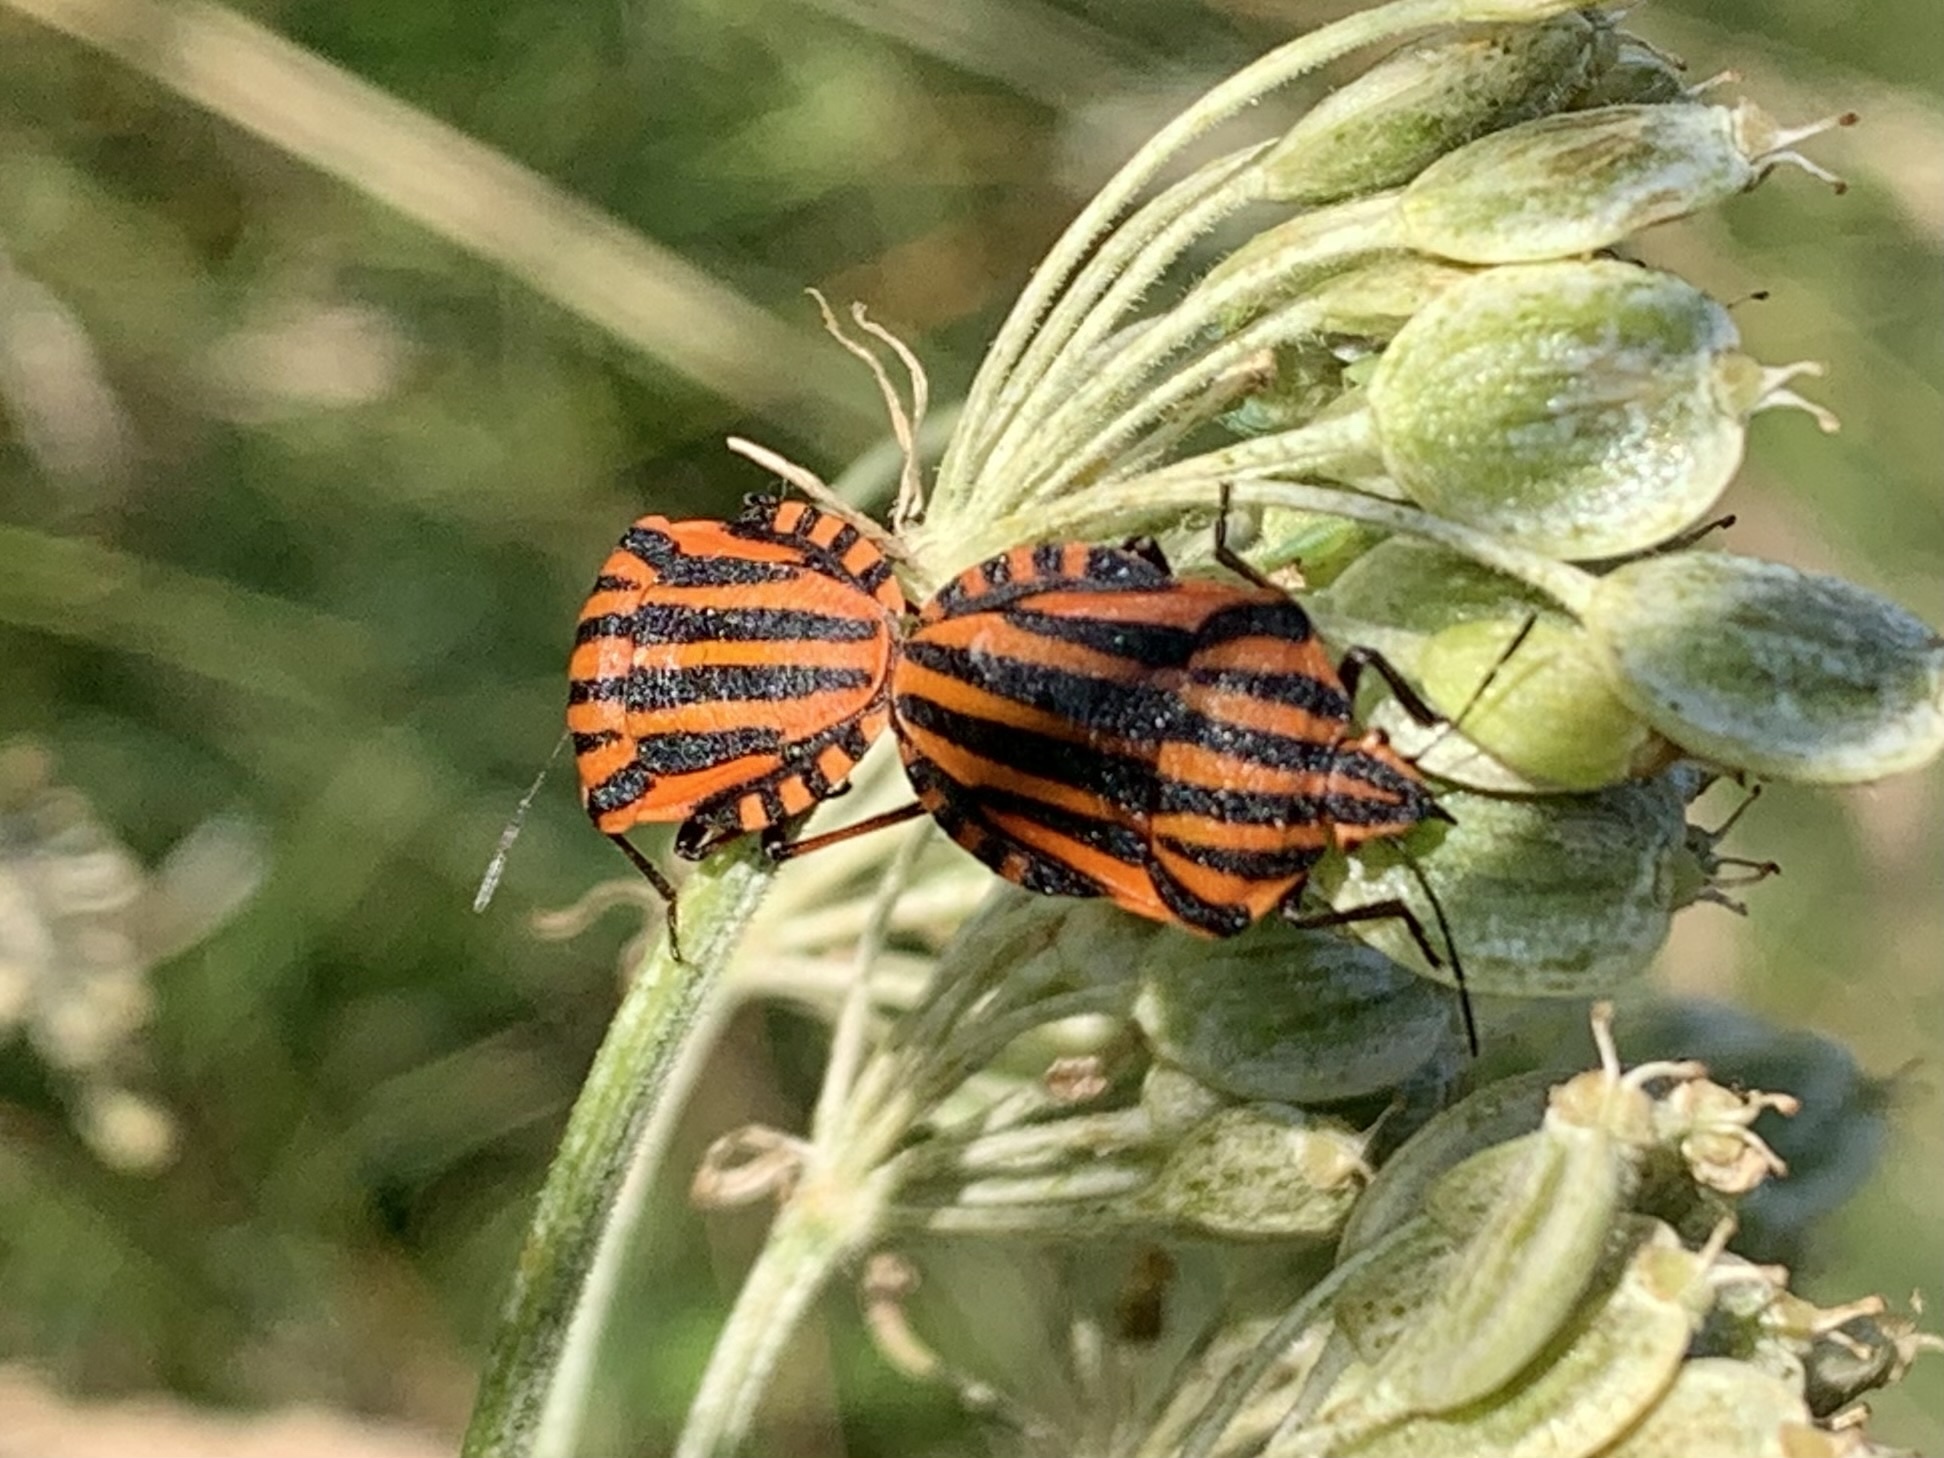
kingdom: Animalia
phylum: Arthropoda
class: Insecta
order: Hemiptera
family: Pentatomidae
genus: Graphosoma
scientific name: Graphosoma italicum
